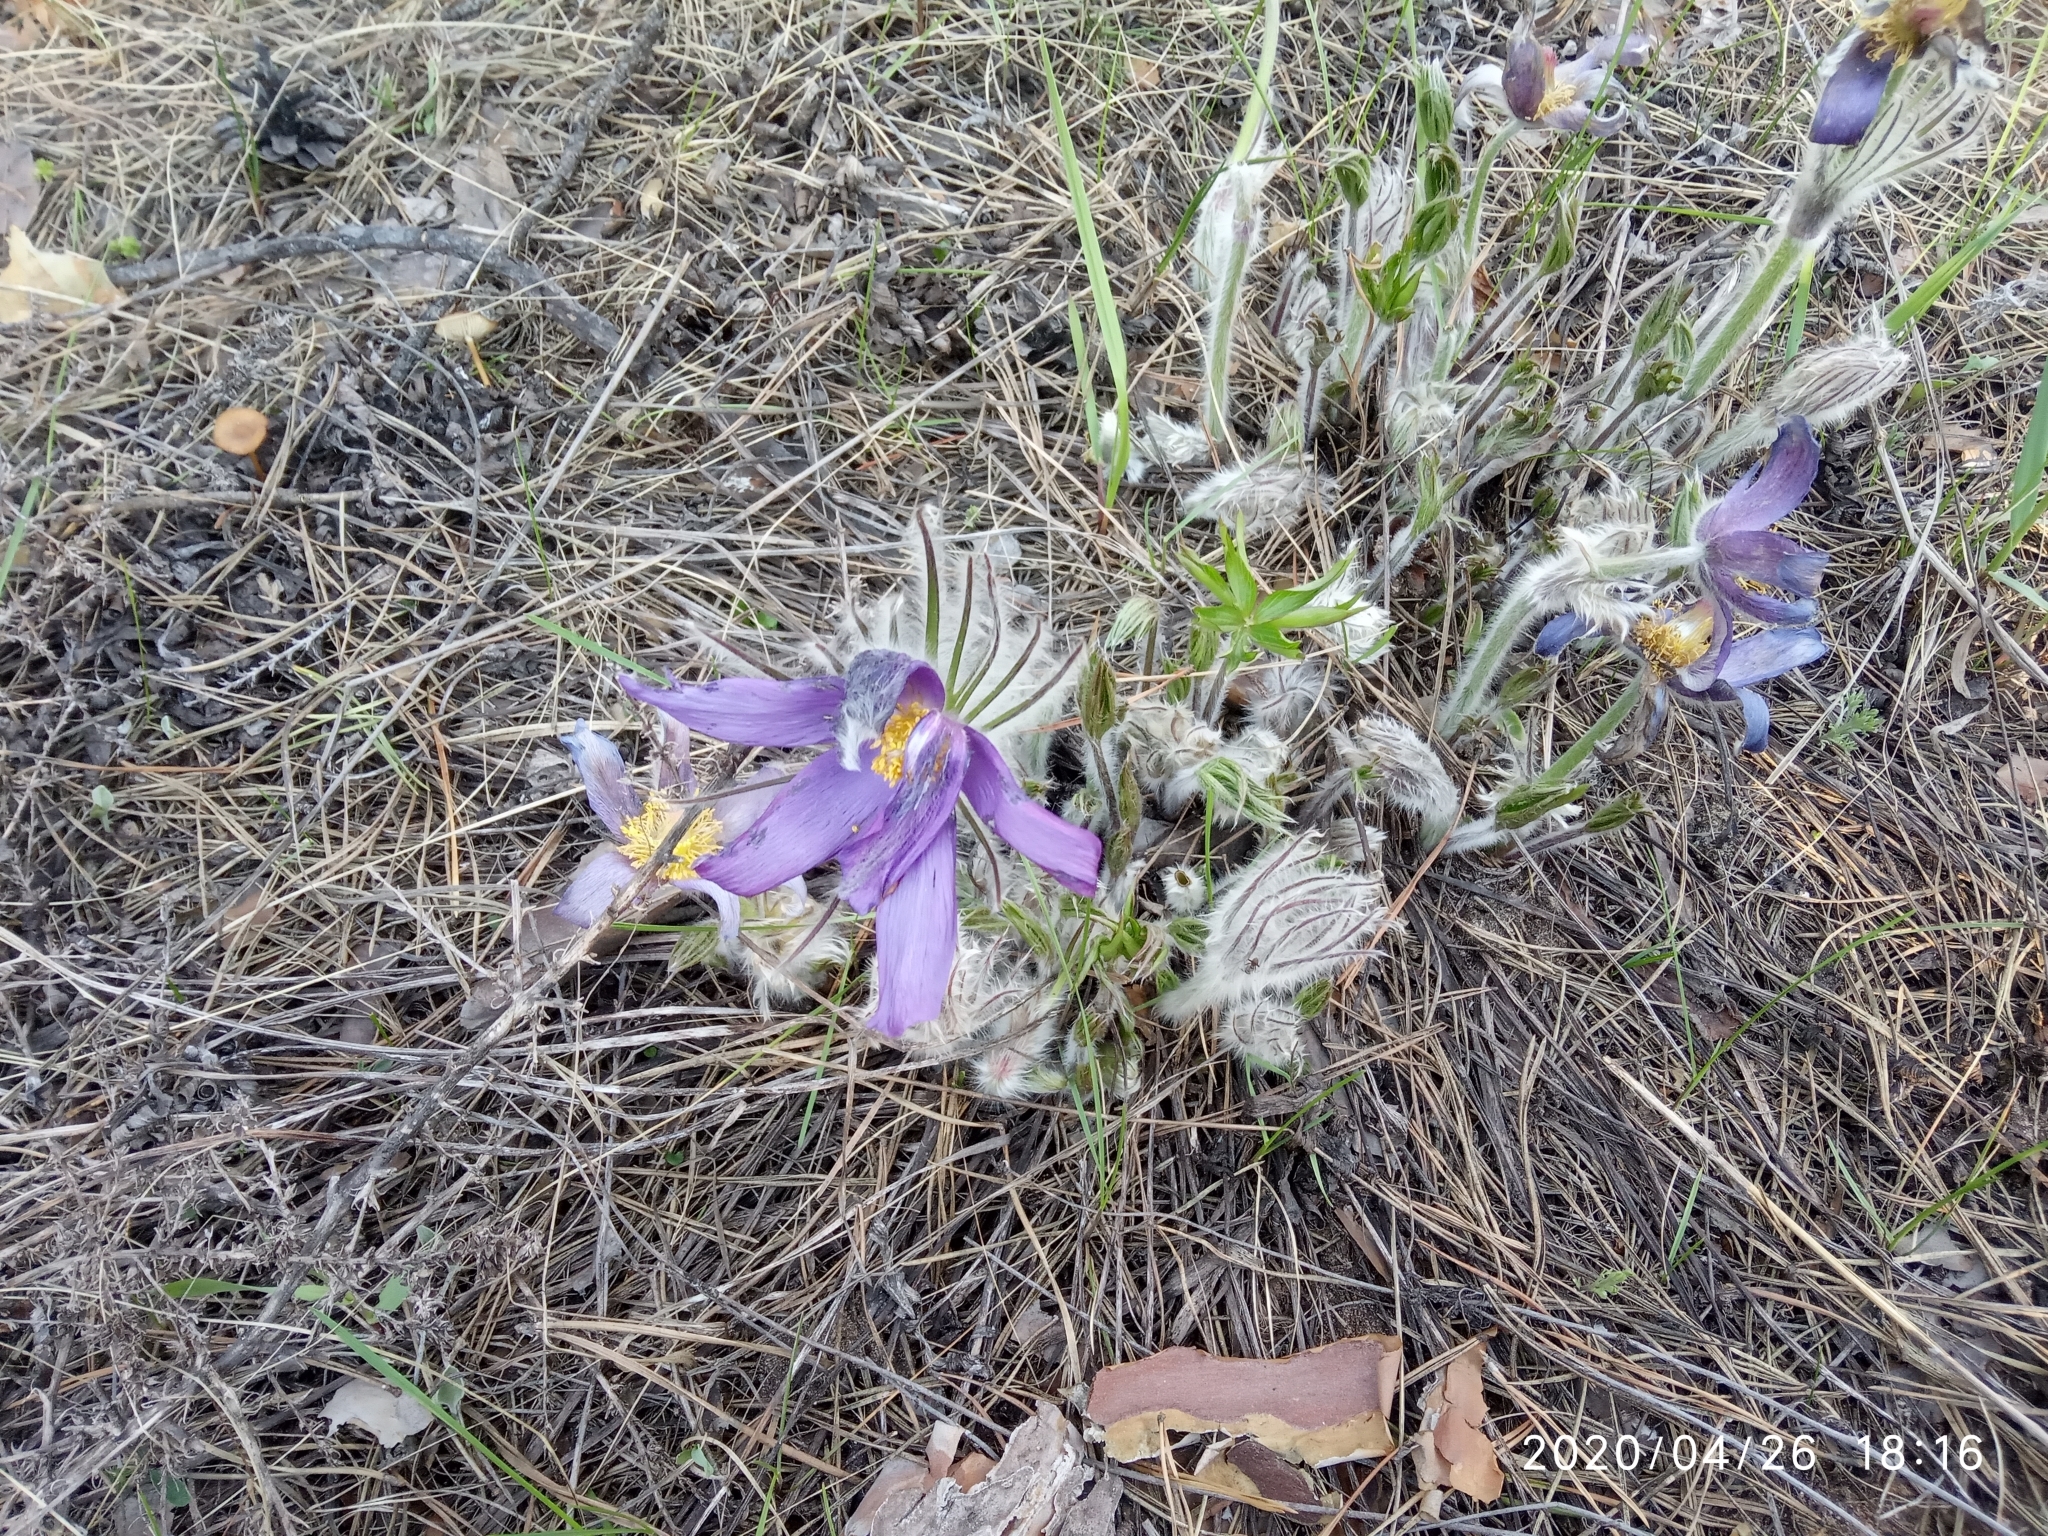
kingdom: Plantae
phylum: Tracheophyta
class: Magnoliopsida
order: Ranunculales
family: Ranunculaceae
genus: Pulsatilla
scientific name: Pulsatilla patens
